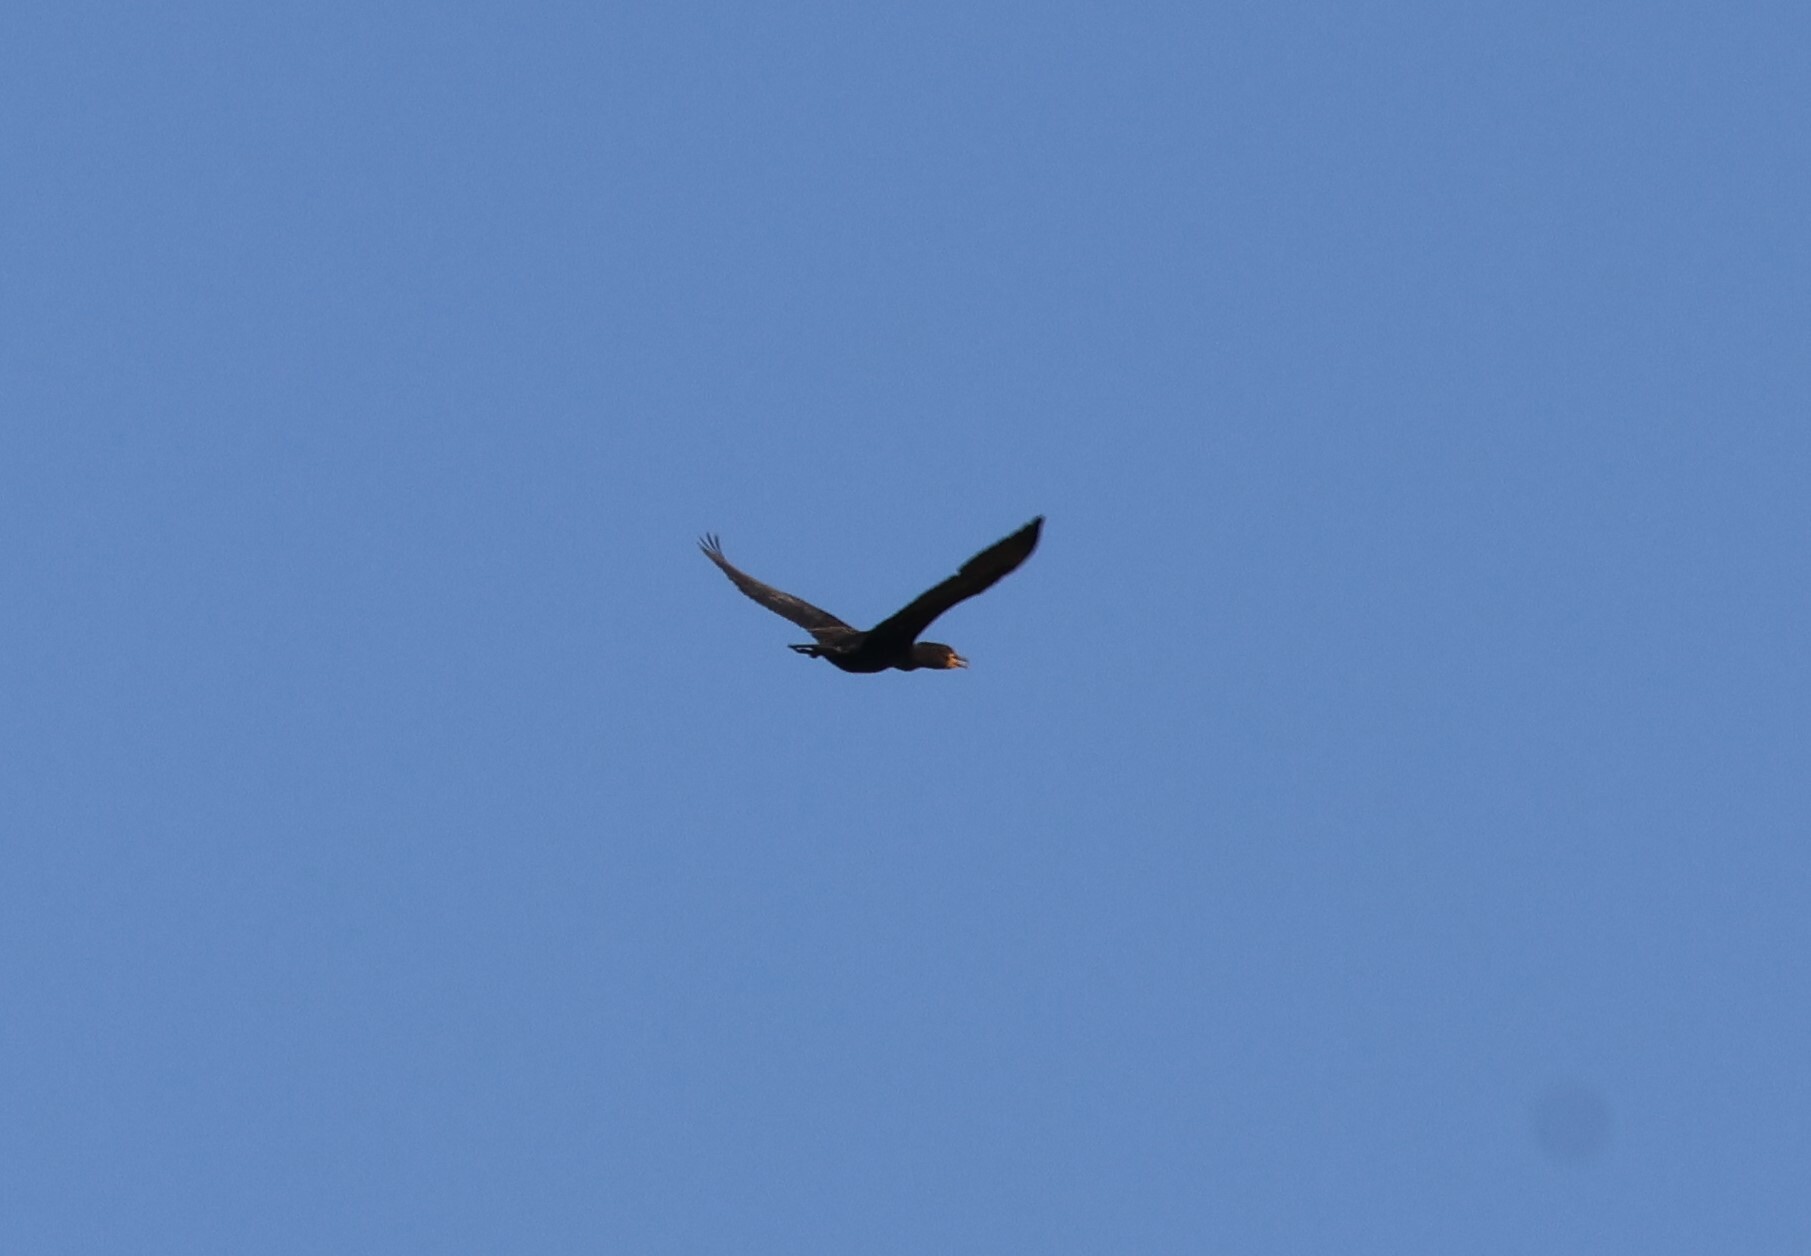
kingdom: Animalia
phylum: Chordata
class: Aves
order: Suliformes
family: Phalacrocoracidae
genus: Phalacrocorax
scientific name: Phalacrocorax auritus
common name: Double-crested cormorant
